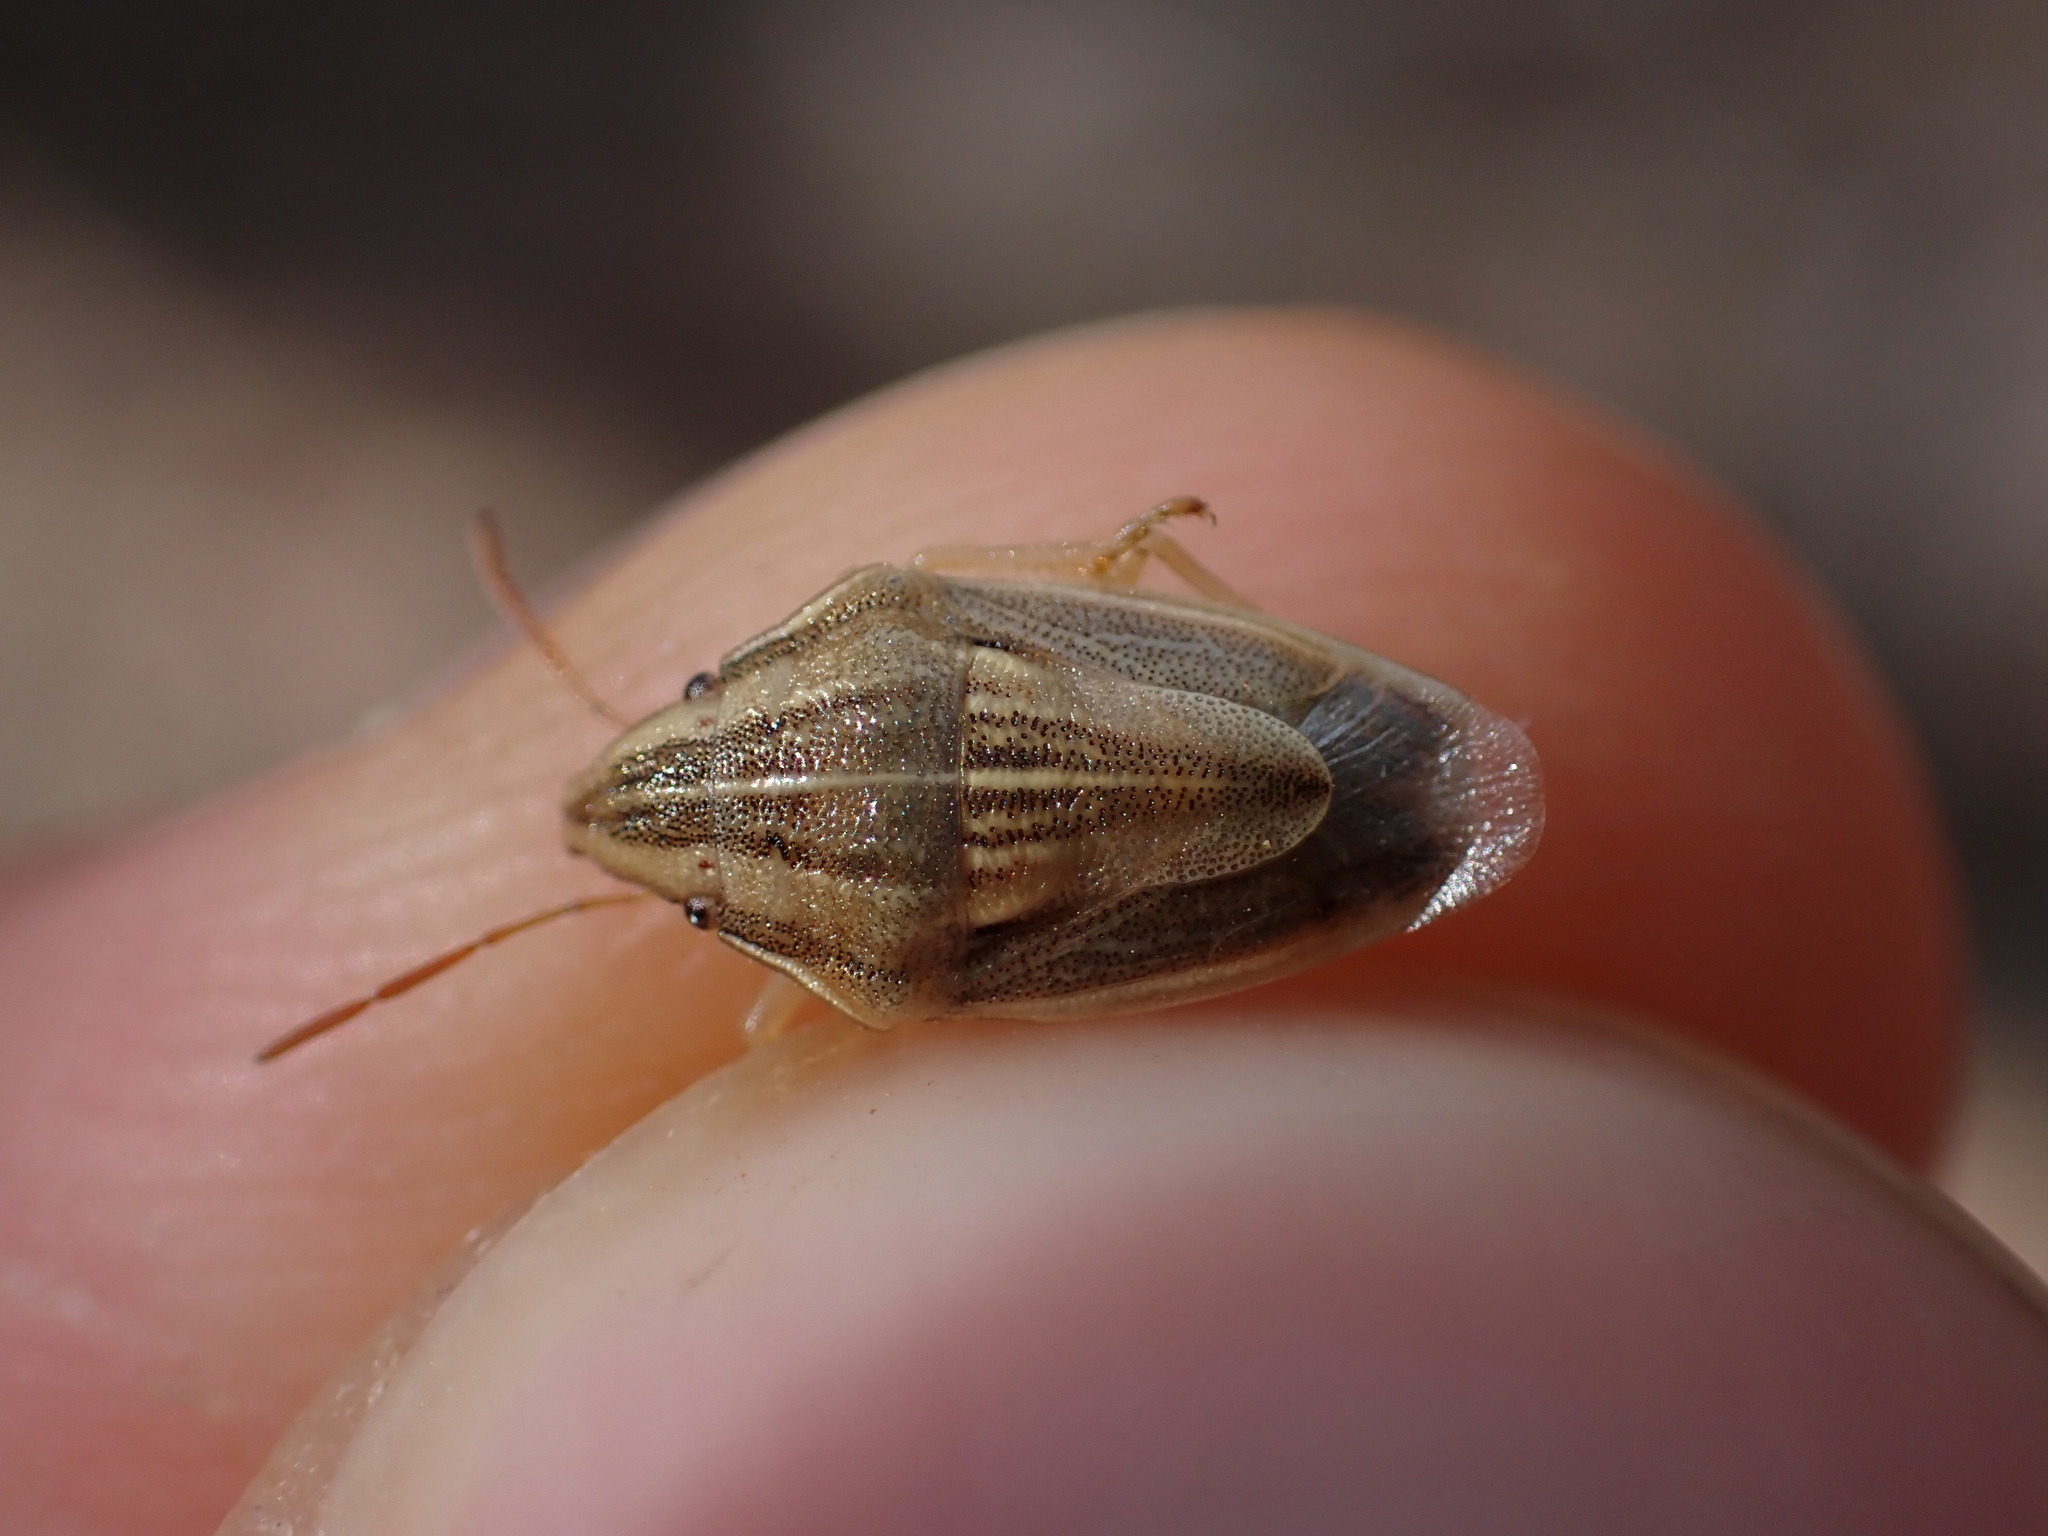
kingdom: Animalia
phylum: Arthropoda
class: Insecta
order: Hemiptera
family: Pentatomidae
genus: Aelia
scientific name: Aelia acuminata
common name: Bishop's mitre
